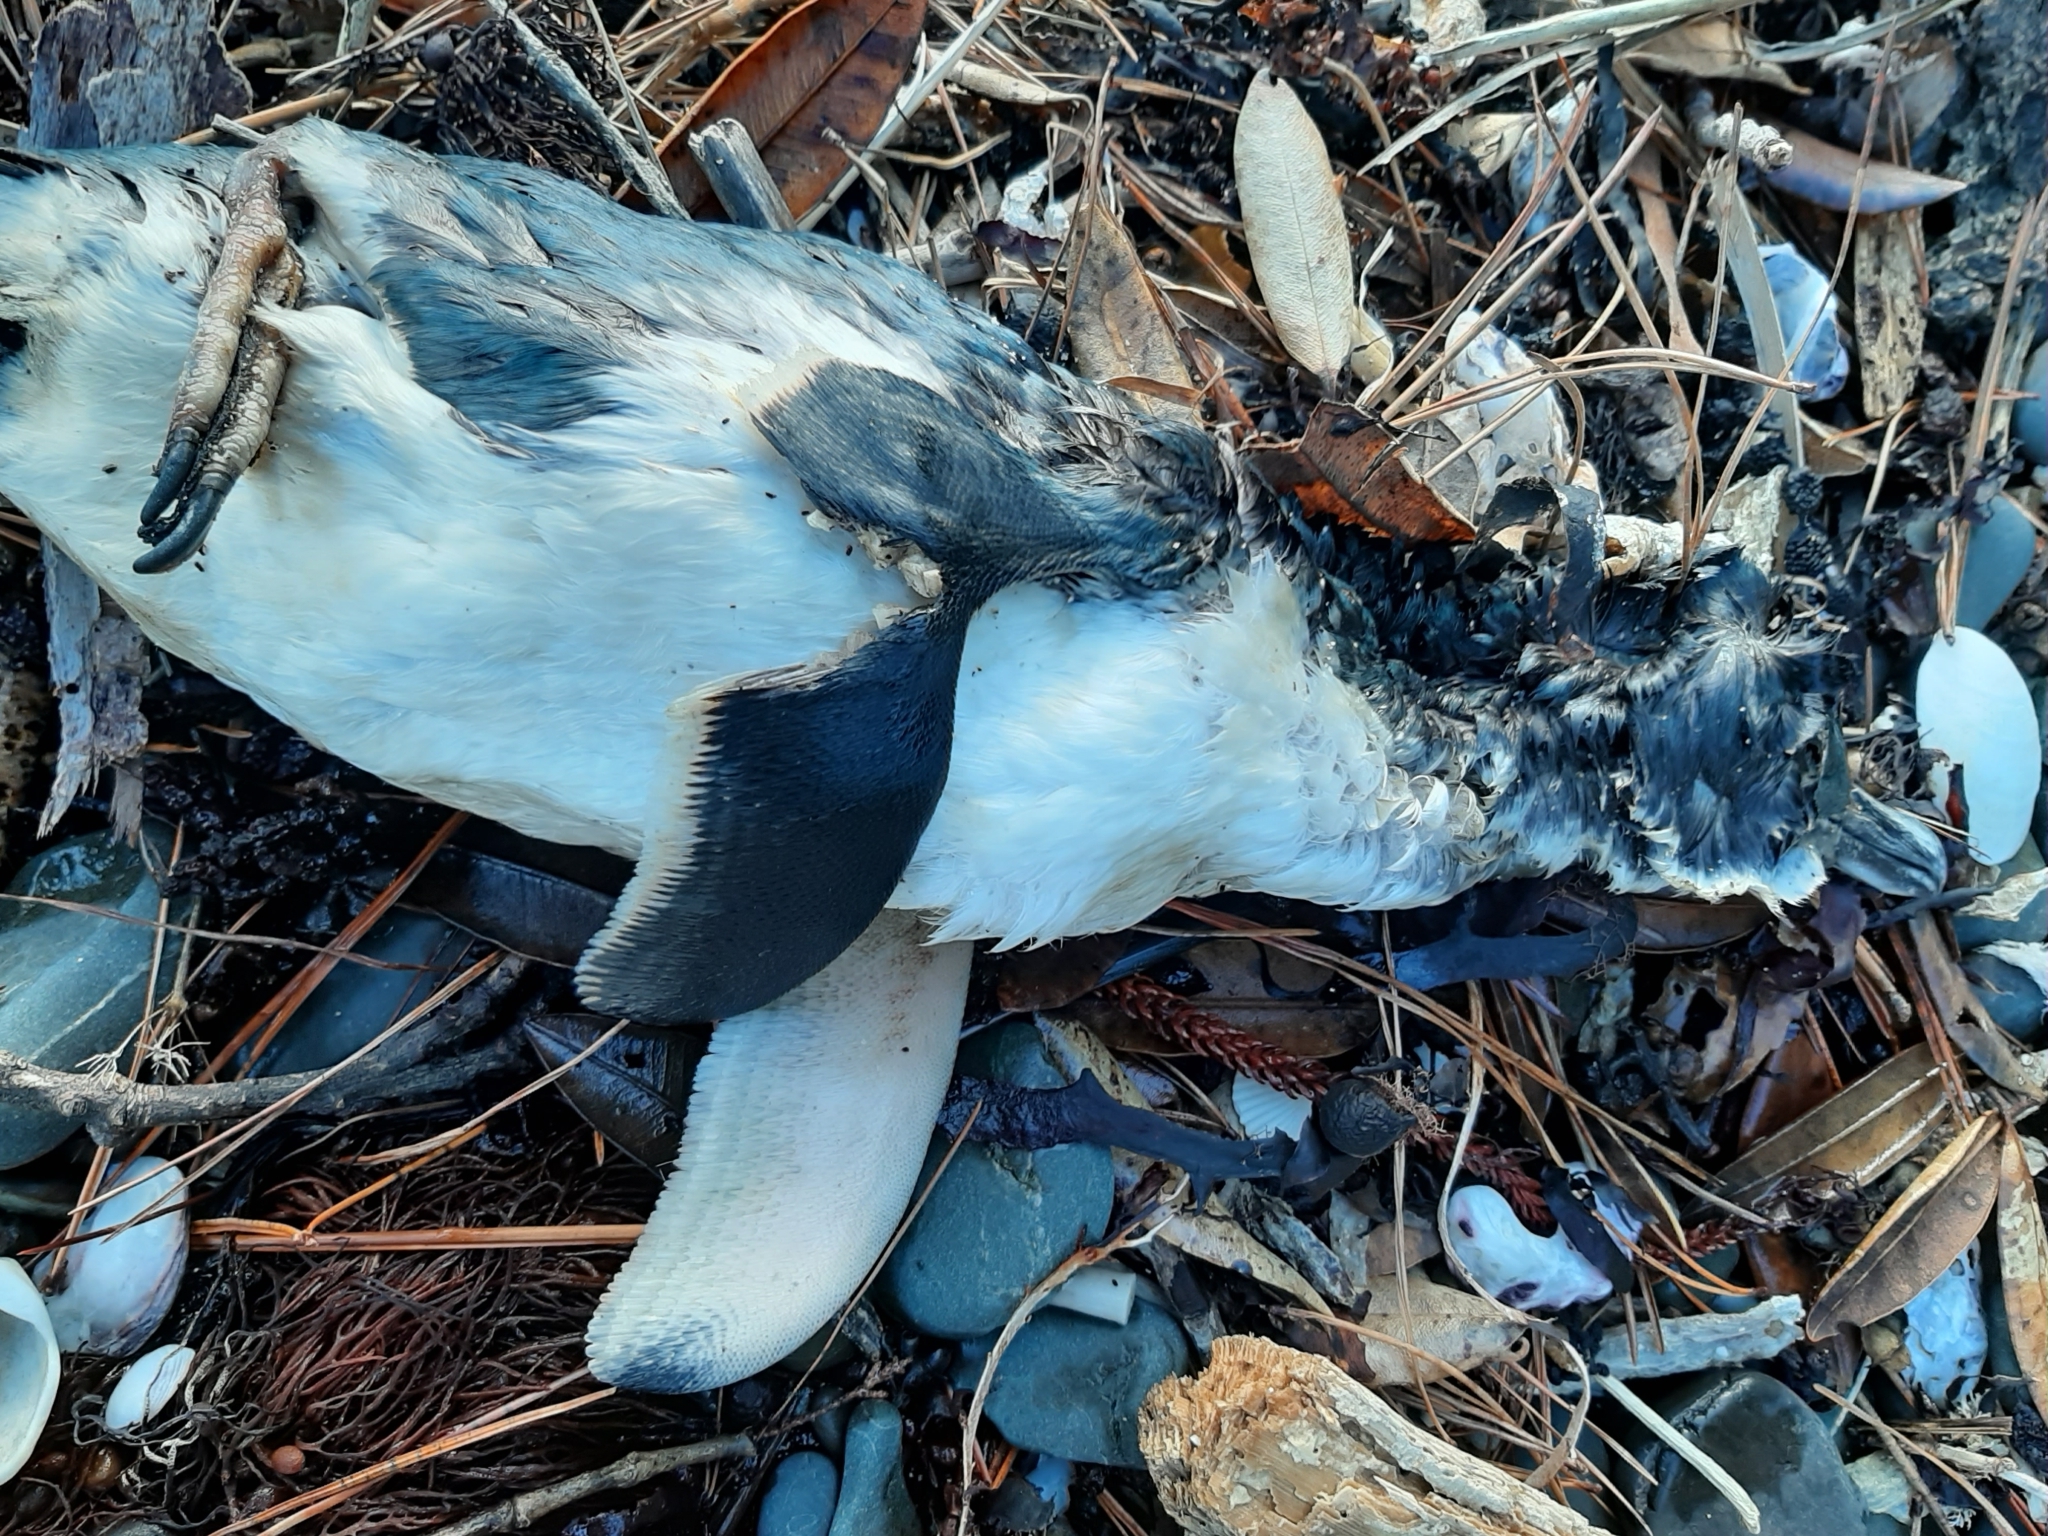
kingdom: Animalia
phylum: Chordata
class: Aves
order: Sphenisciformes
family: Spheniscidae
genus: Eudyptula
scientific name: Eudyptula minor
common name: Little penguin
